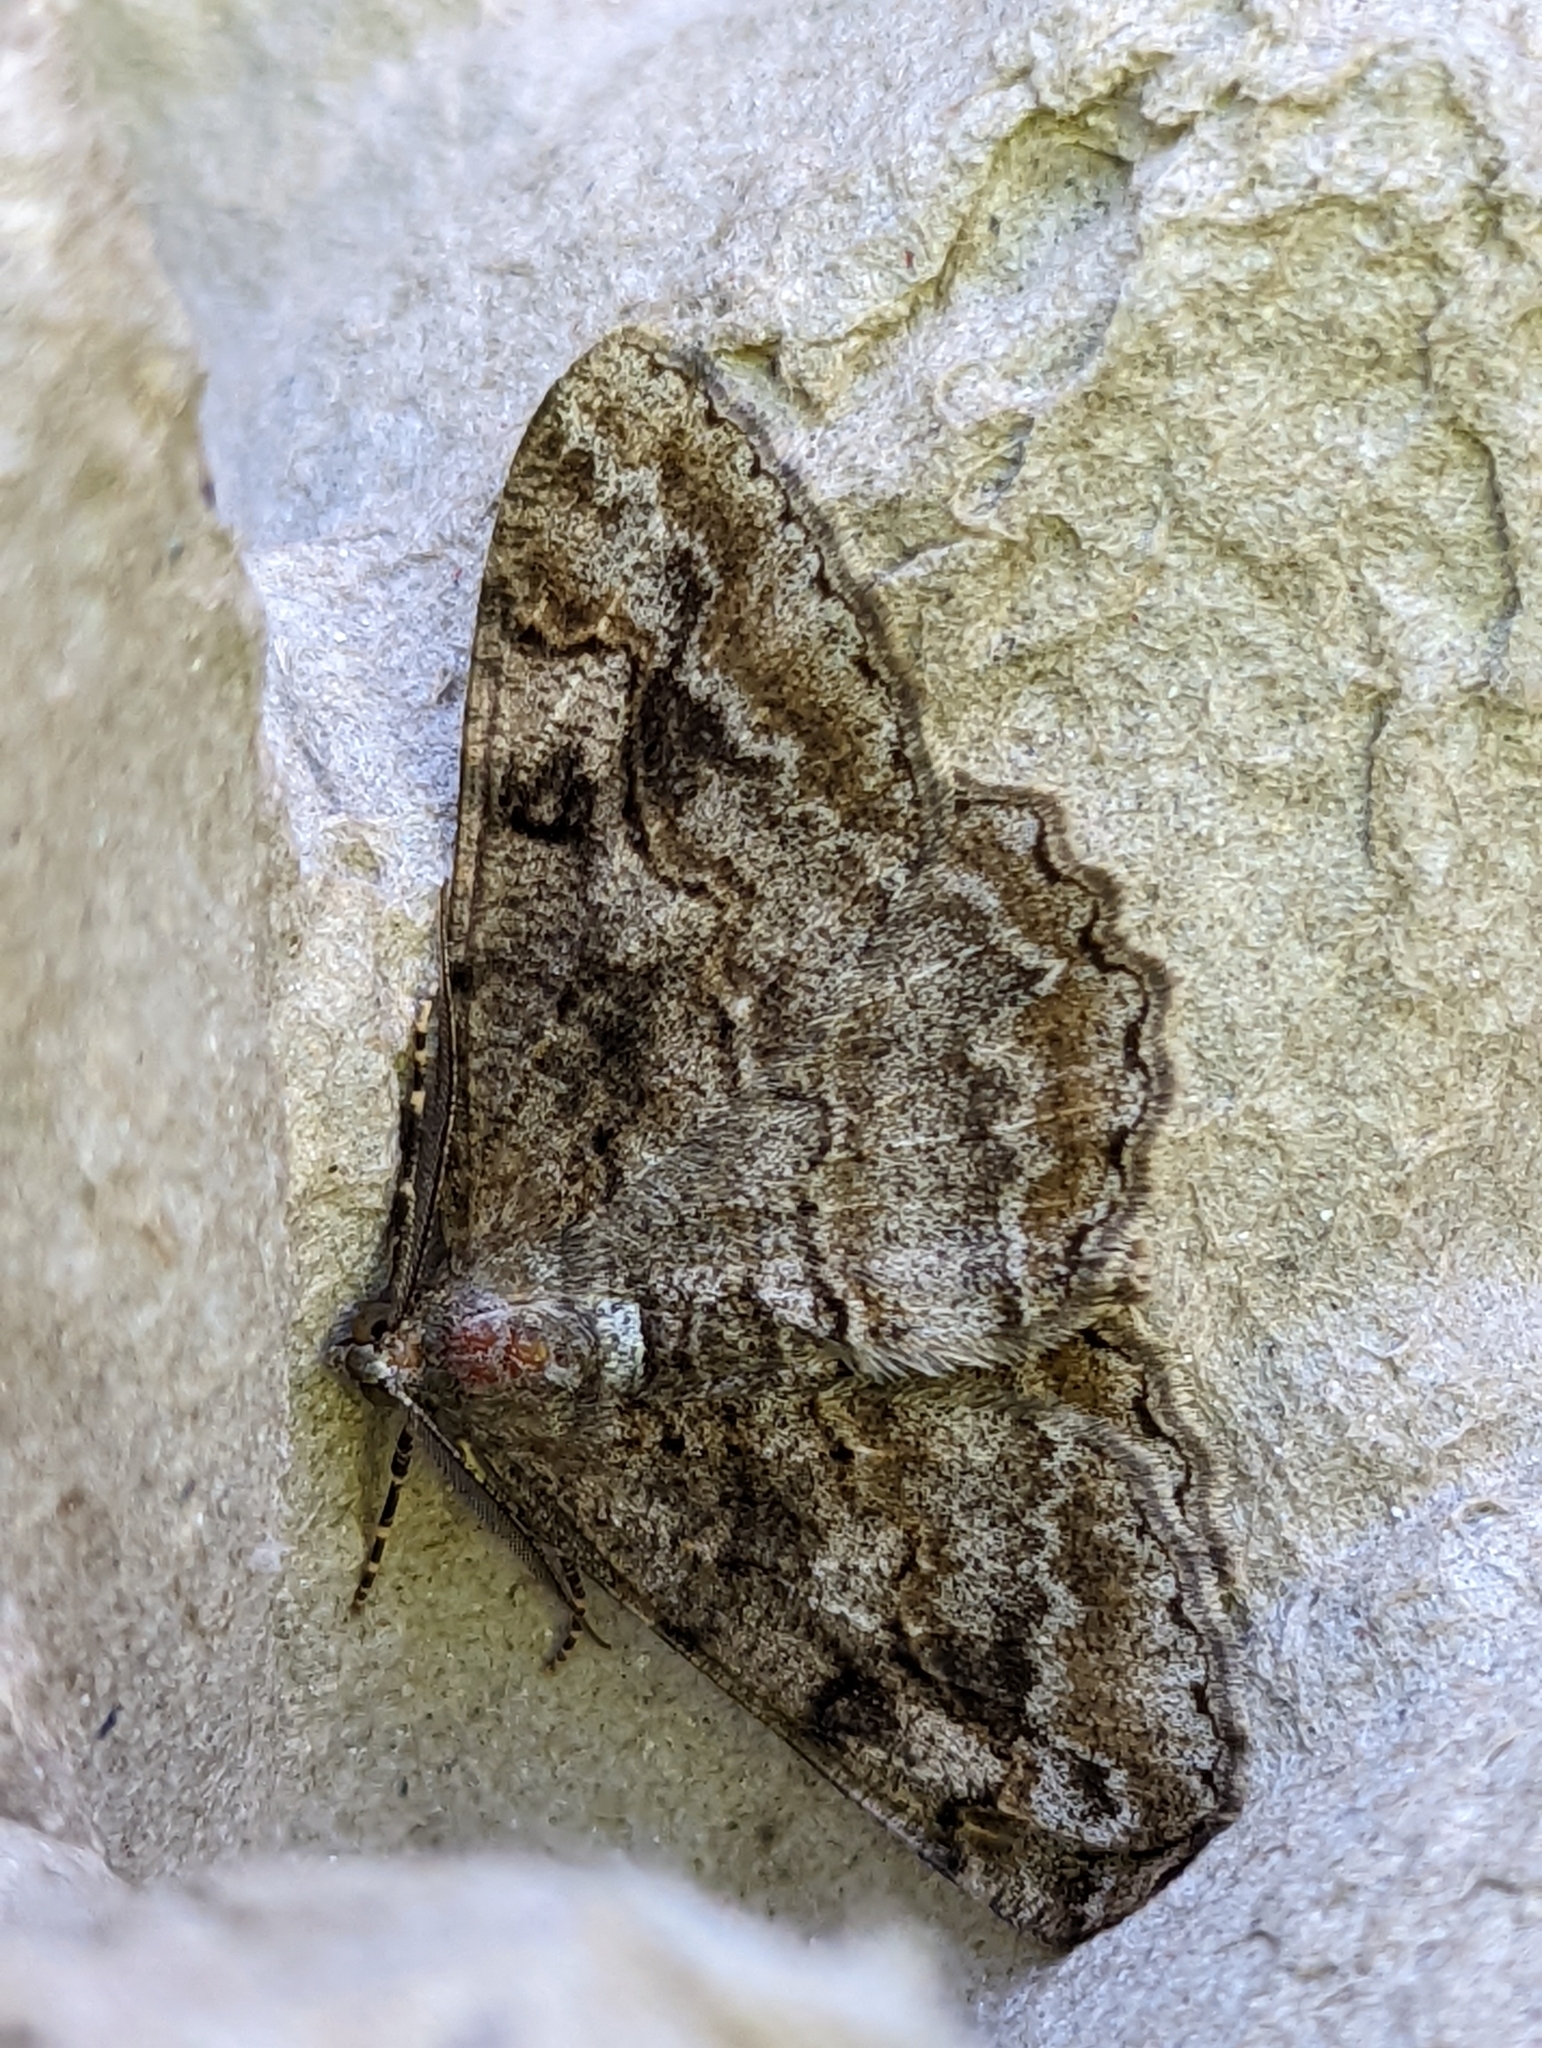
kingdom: Animalia
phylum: Arthropoda
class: Insecta
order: Lepidoptera
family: Geometridae
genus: Alcis
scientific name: Alcis repandata
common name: Mottled beauty
